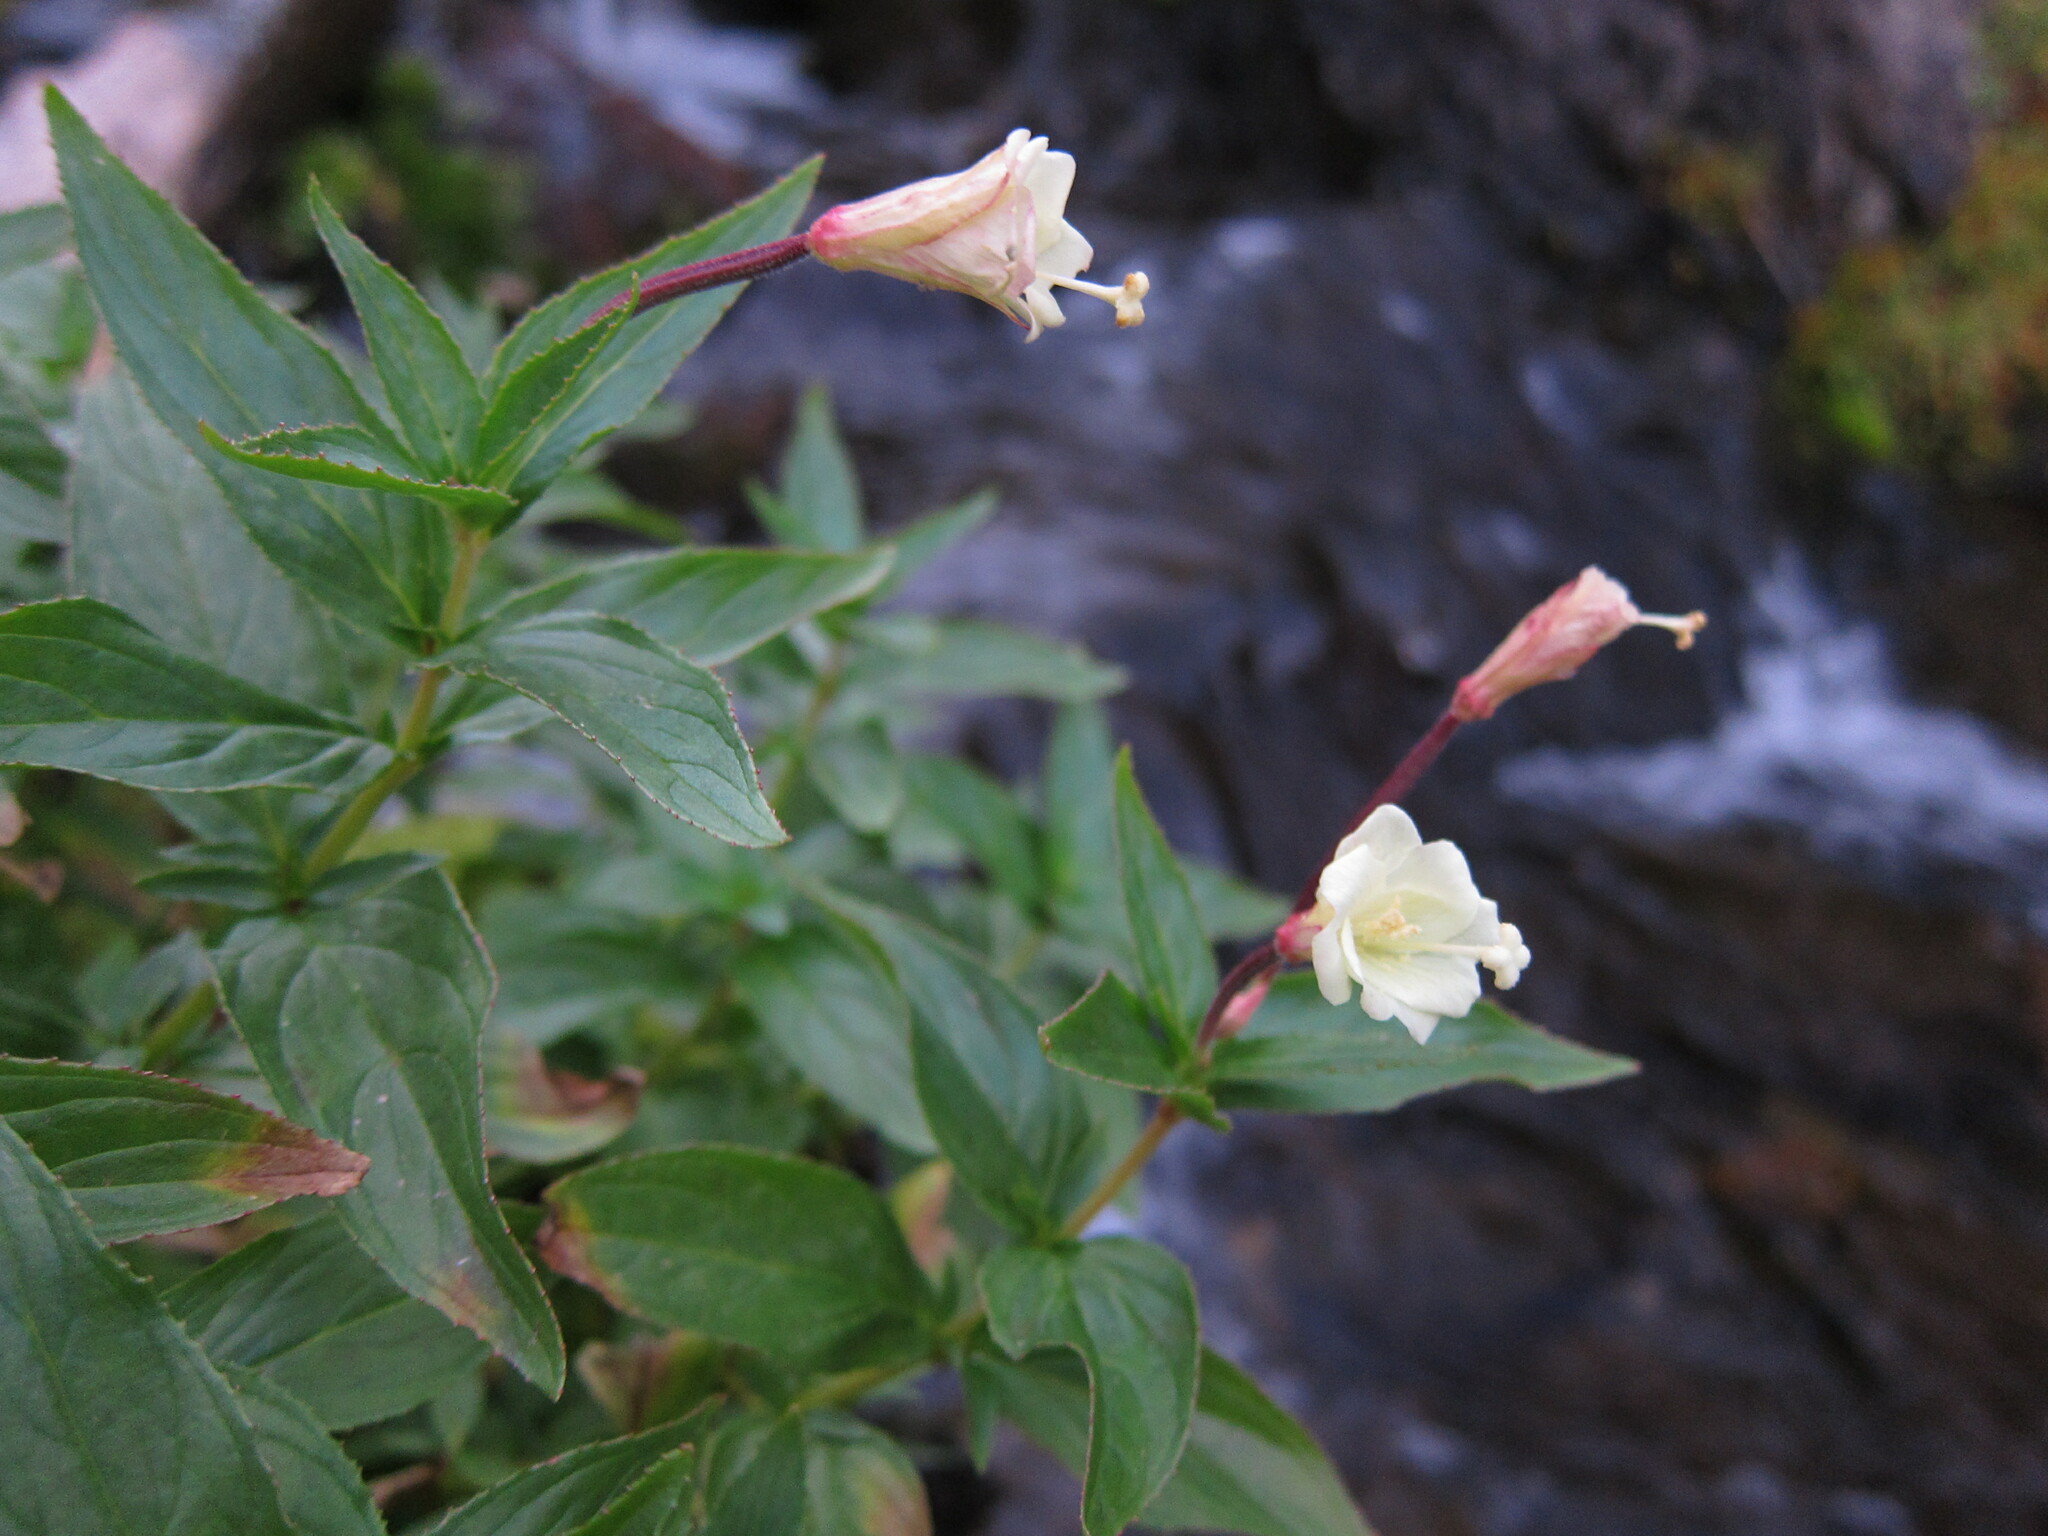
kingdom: Plantae
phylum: Tracheophyta
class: Magnoliopsida
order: Myrtales
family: Onagraceae
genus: Epilobium
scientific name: Epilobium luteum
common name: Yellow willowherb
